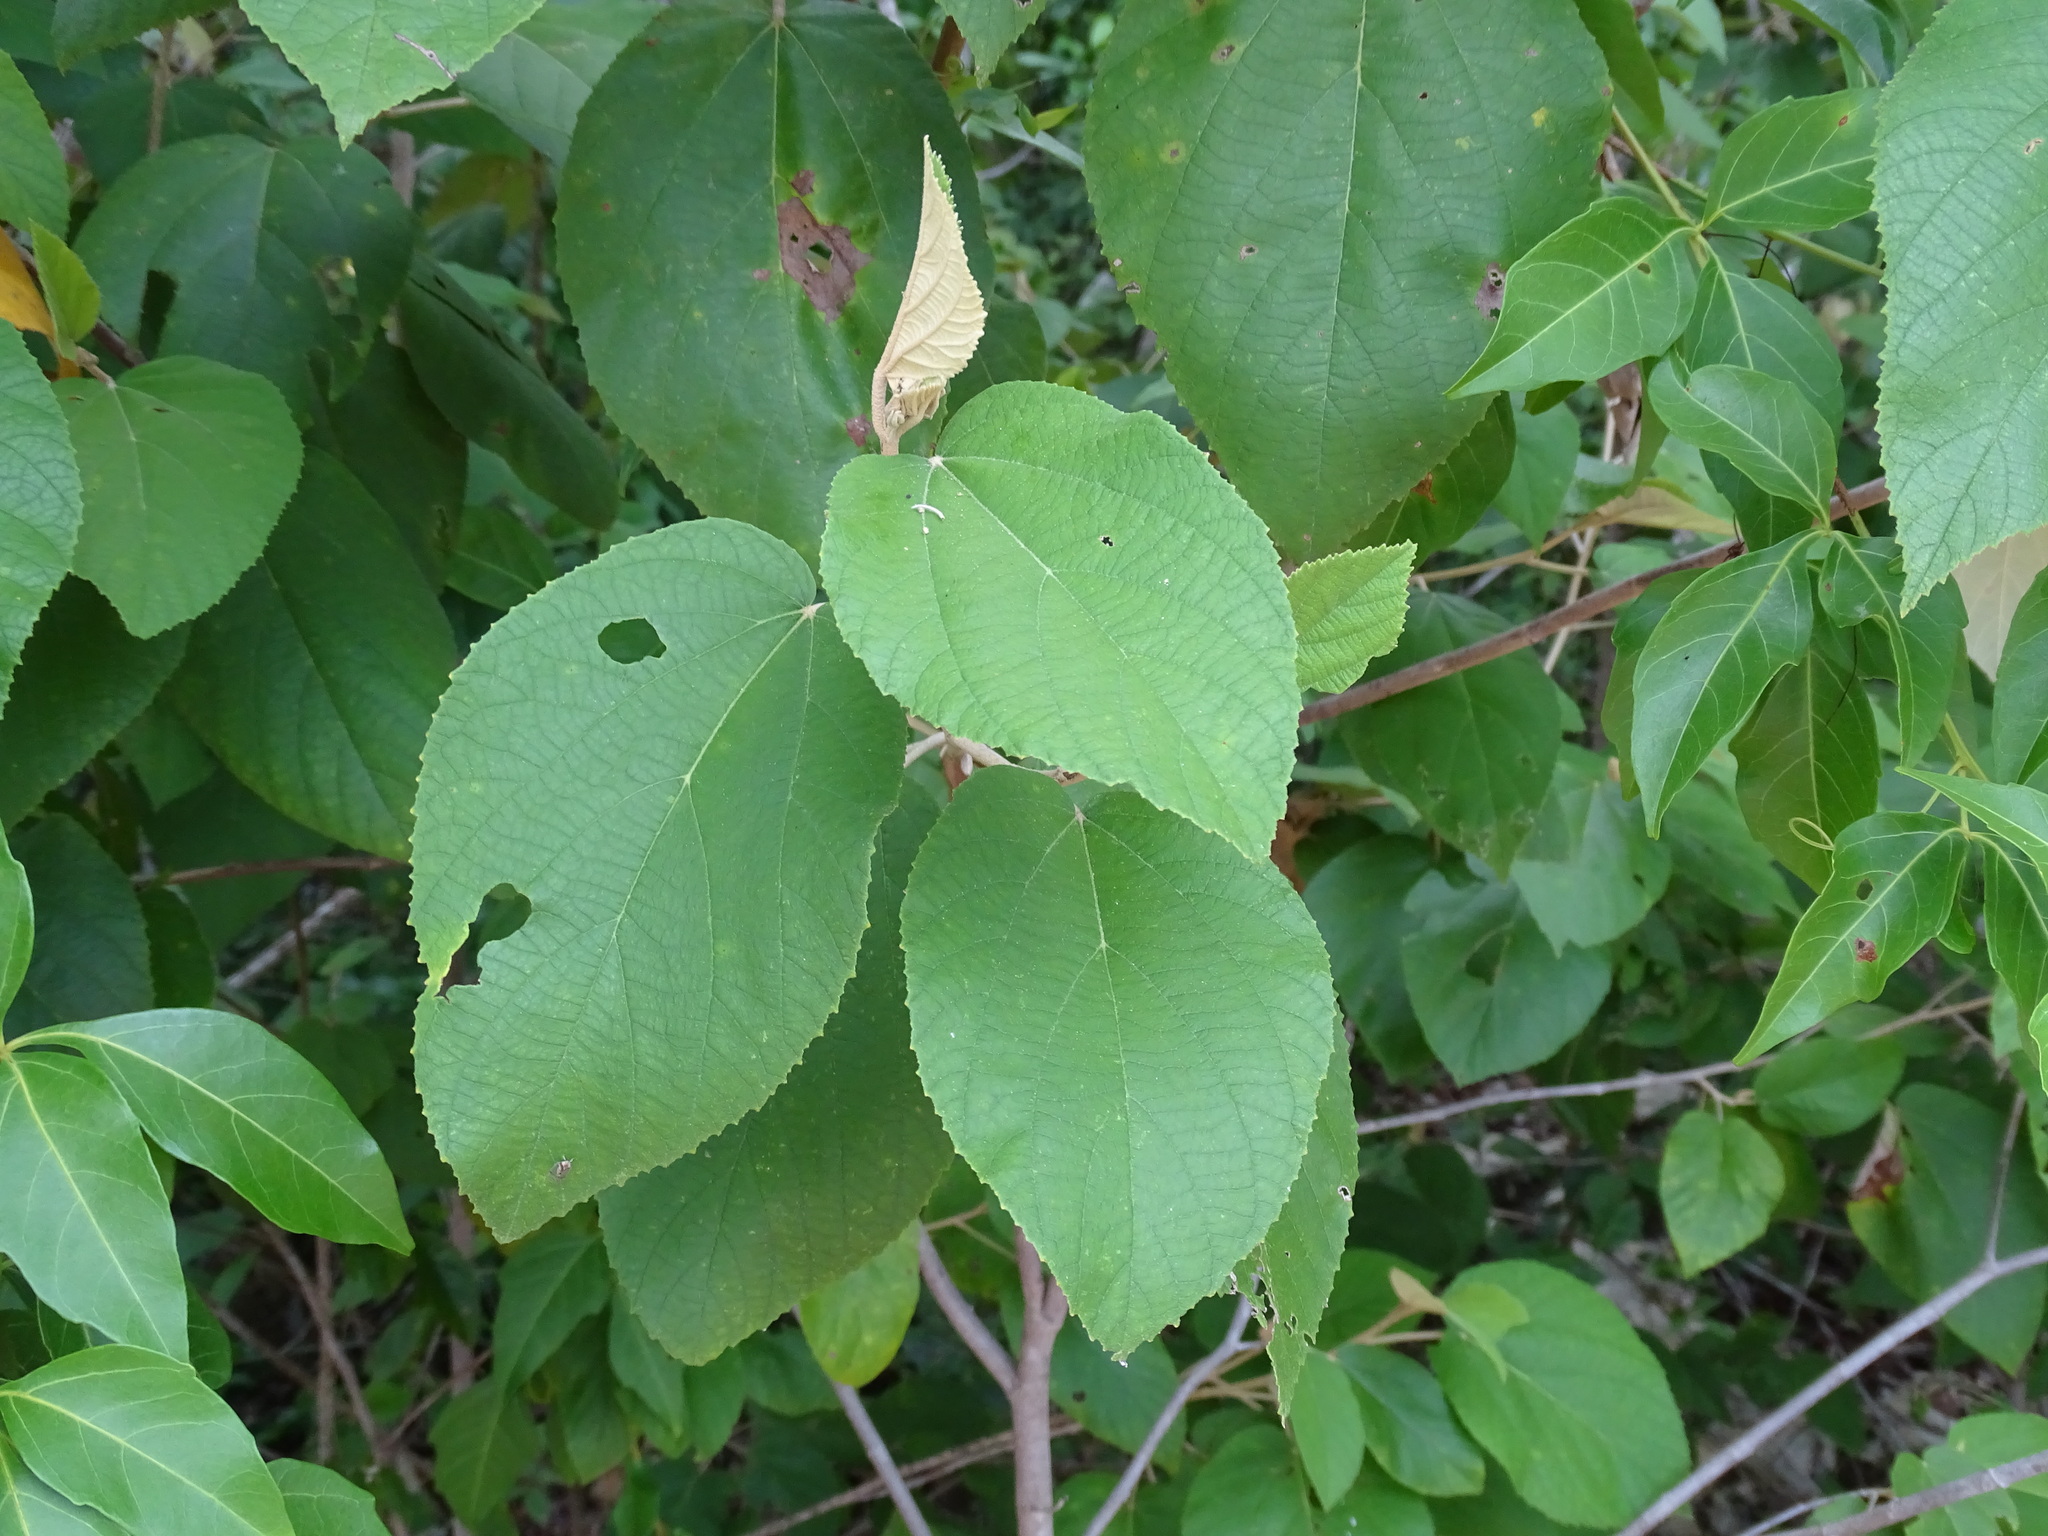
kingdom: Plantae
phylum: Tracheophyta
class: Magnoliopsida
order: Malvales
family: Malvaceae
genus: Helicteres
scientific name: Helicteres baruensis
